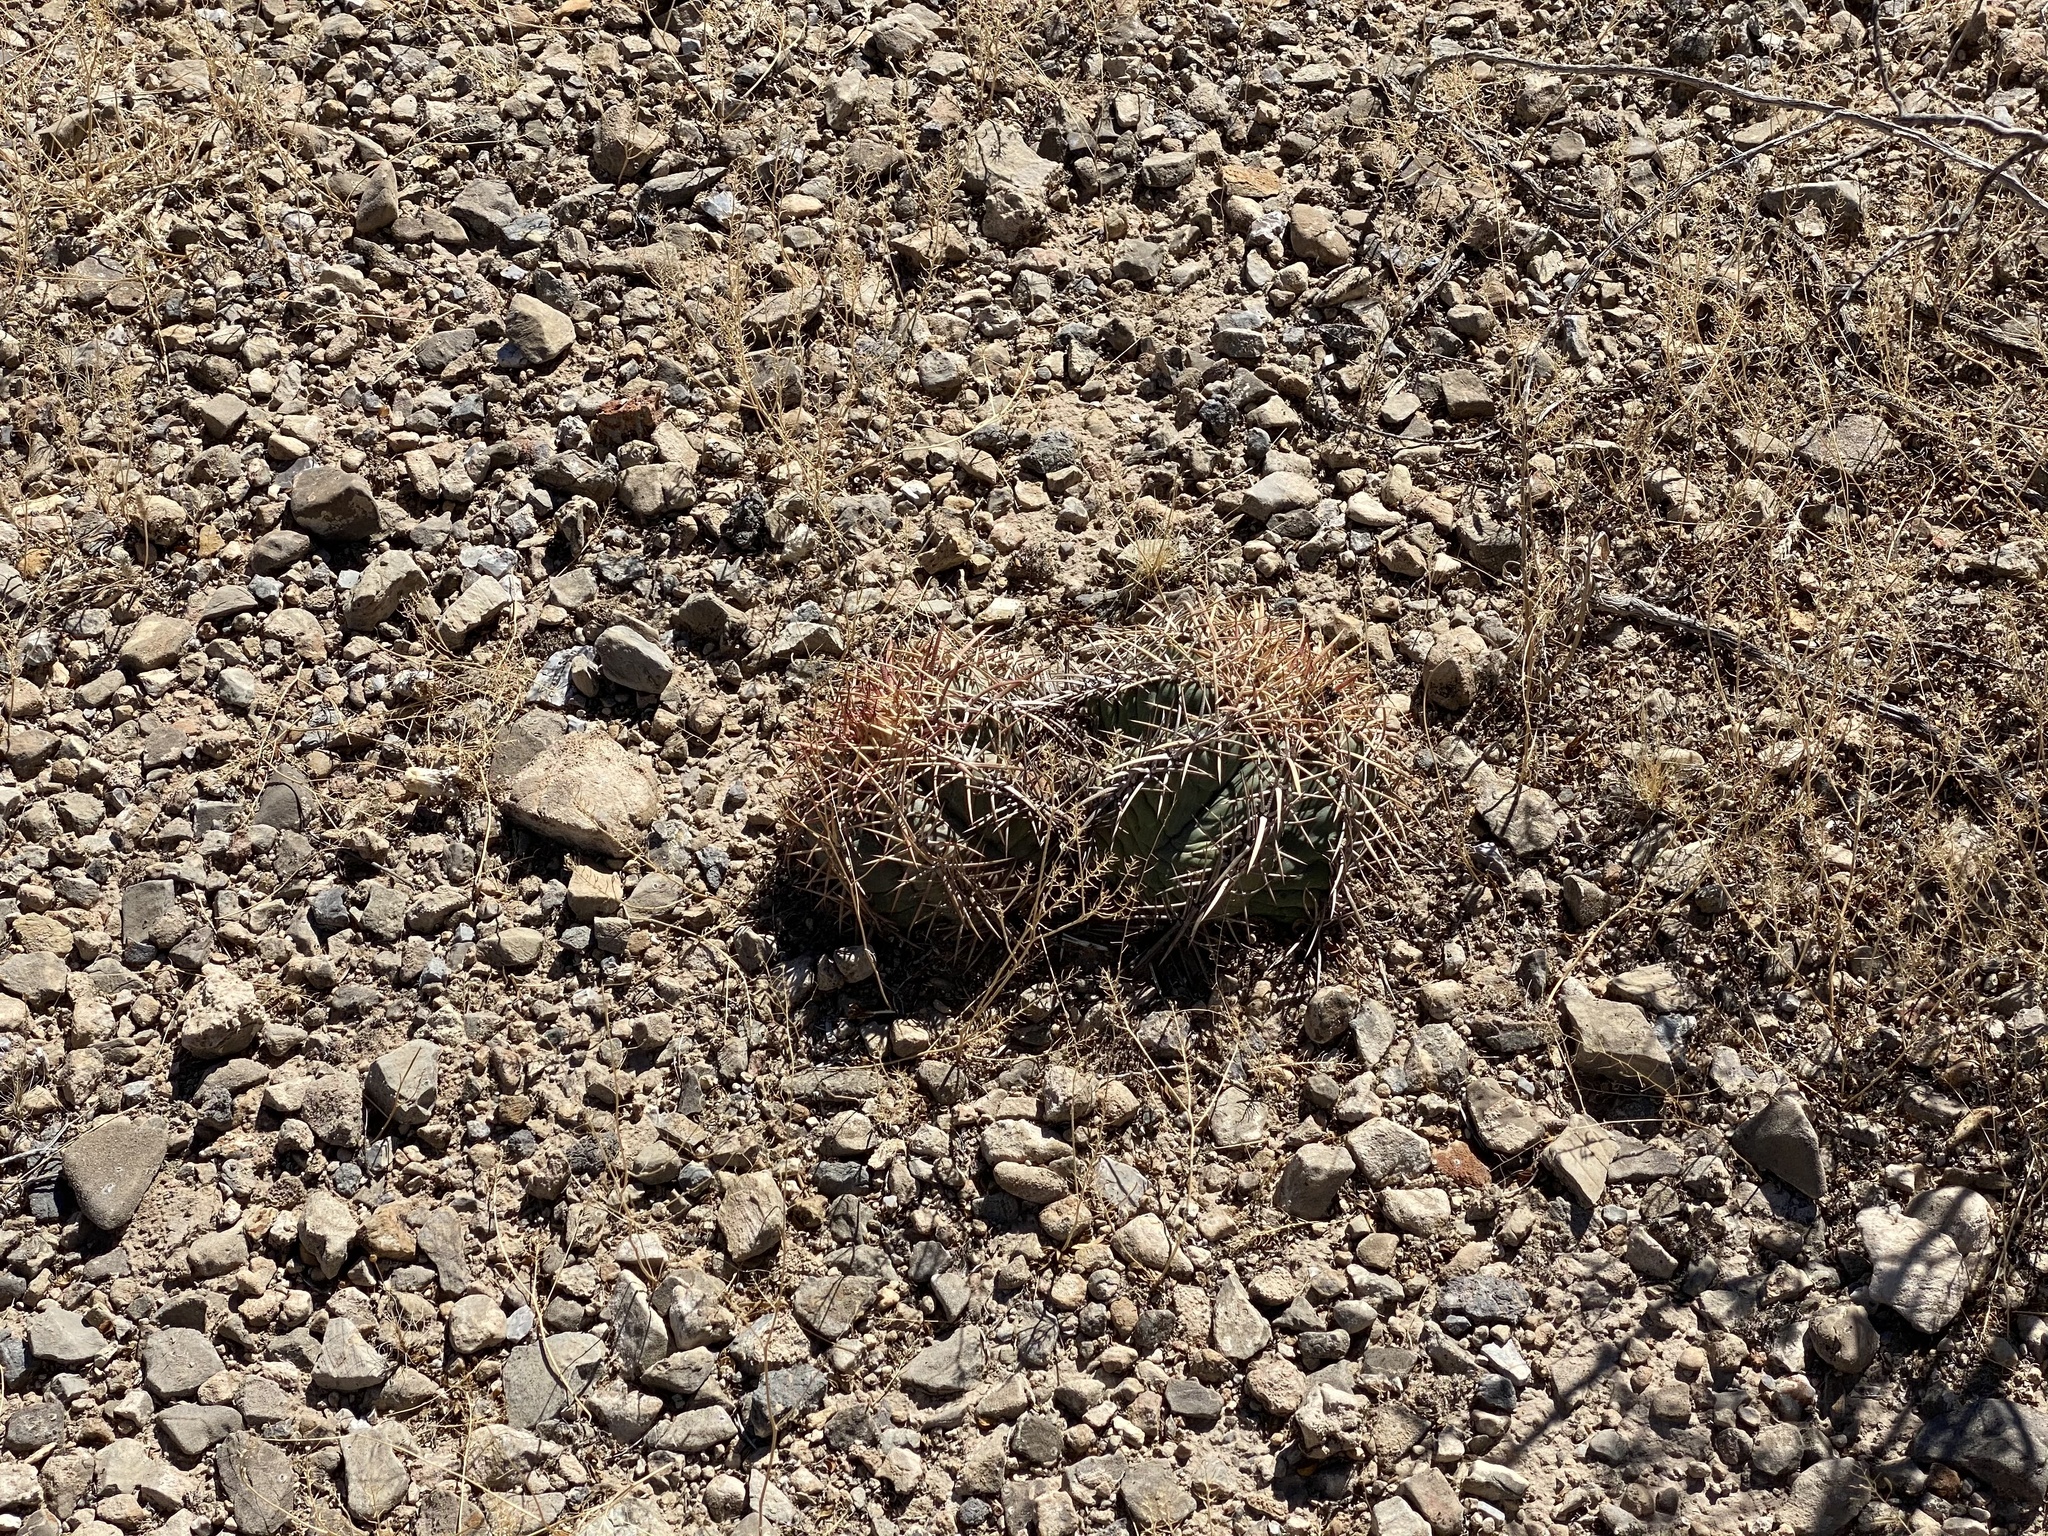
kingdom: Plantae
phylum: Tracheophyta
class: Magnoliopsida
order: Caryophyllales
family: Cactaceae
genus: Echinocactus
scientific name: Echinocactus horizonthalonius
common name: Devilshead
